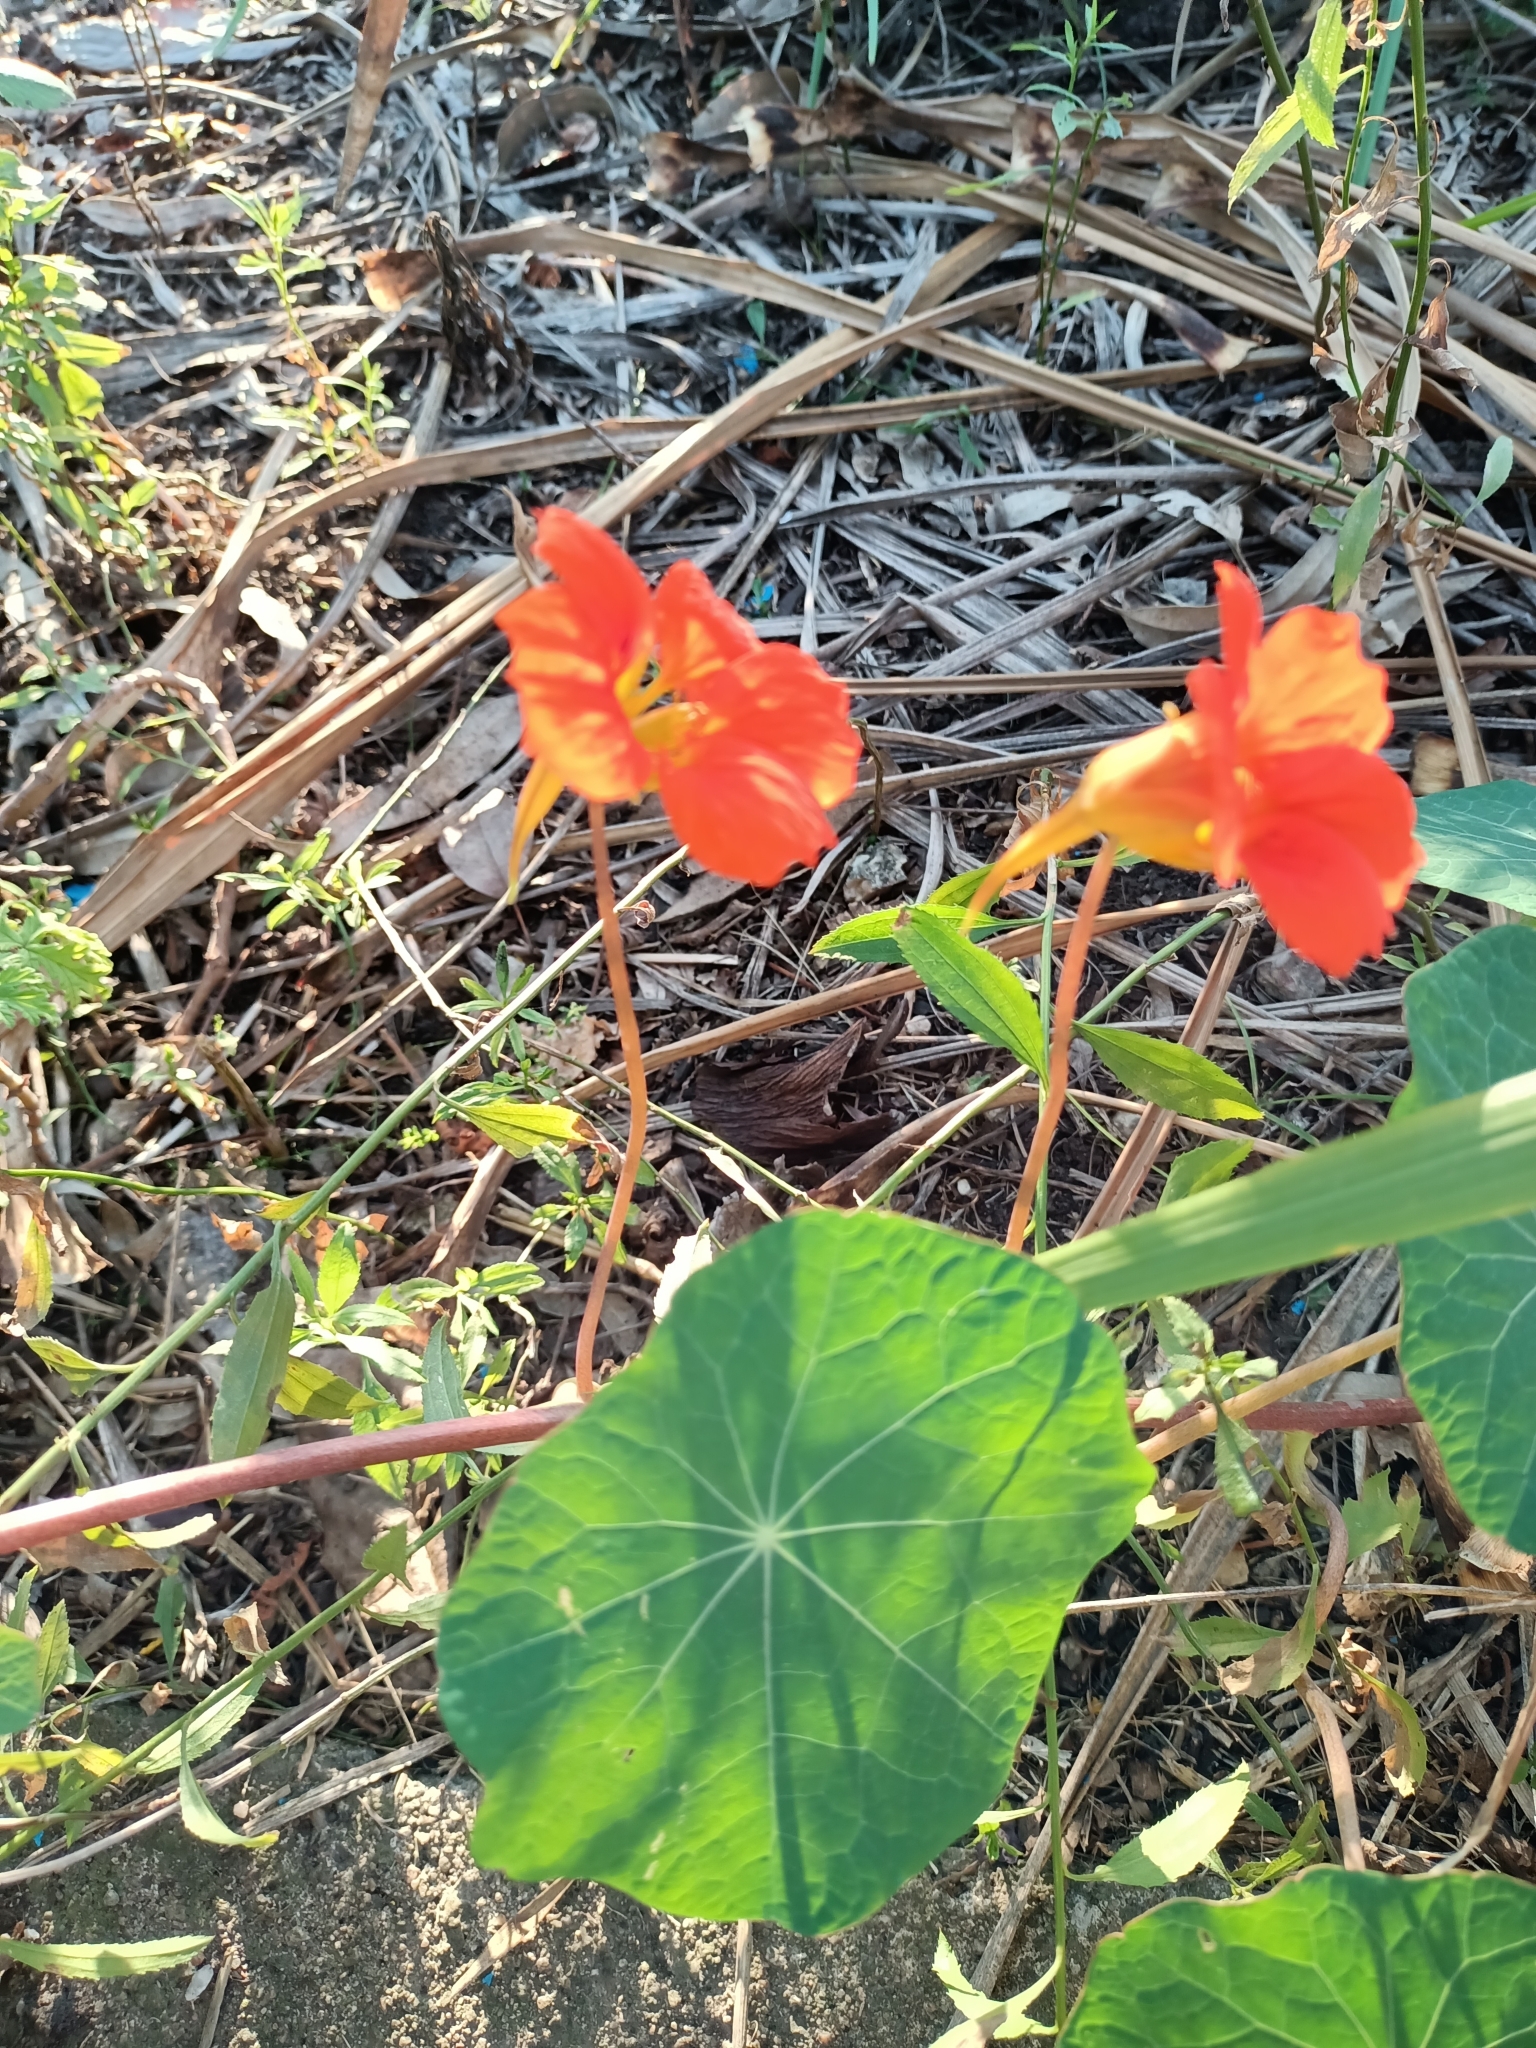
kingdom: Plantae
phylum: Tracheophyta
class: Magnoliopsida
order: Brassicales
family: Tropaeolaceae
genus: Tropaeolum
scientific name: Tropaeolum majus
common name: Nasturtium
